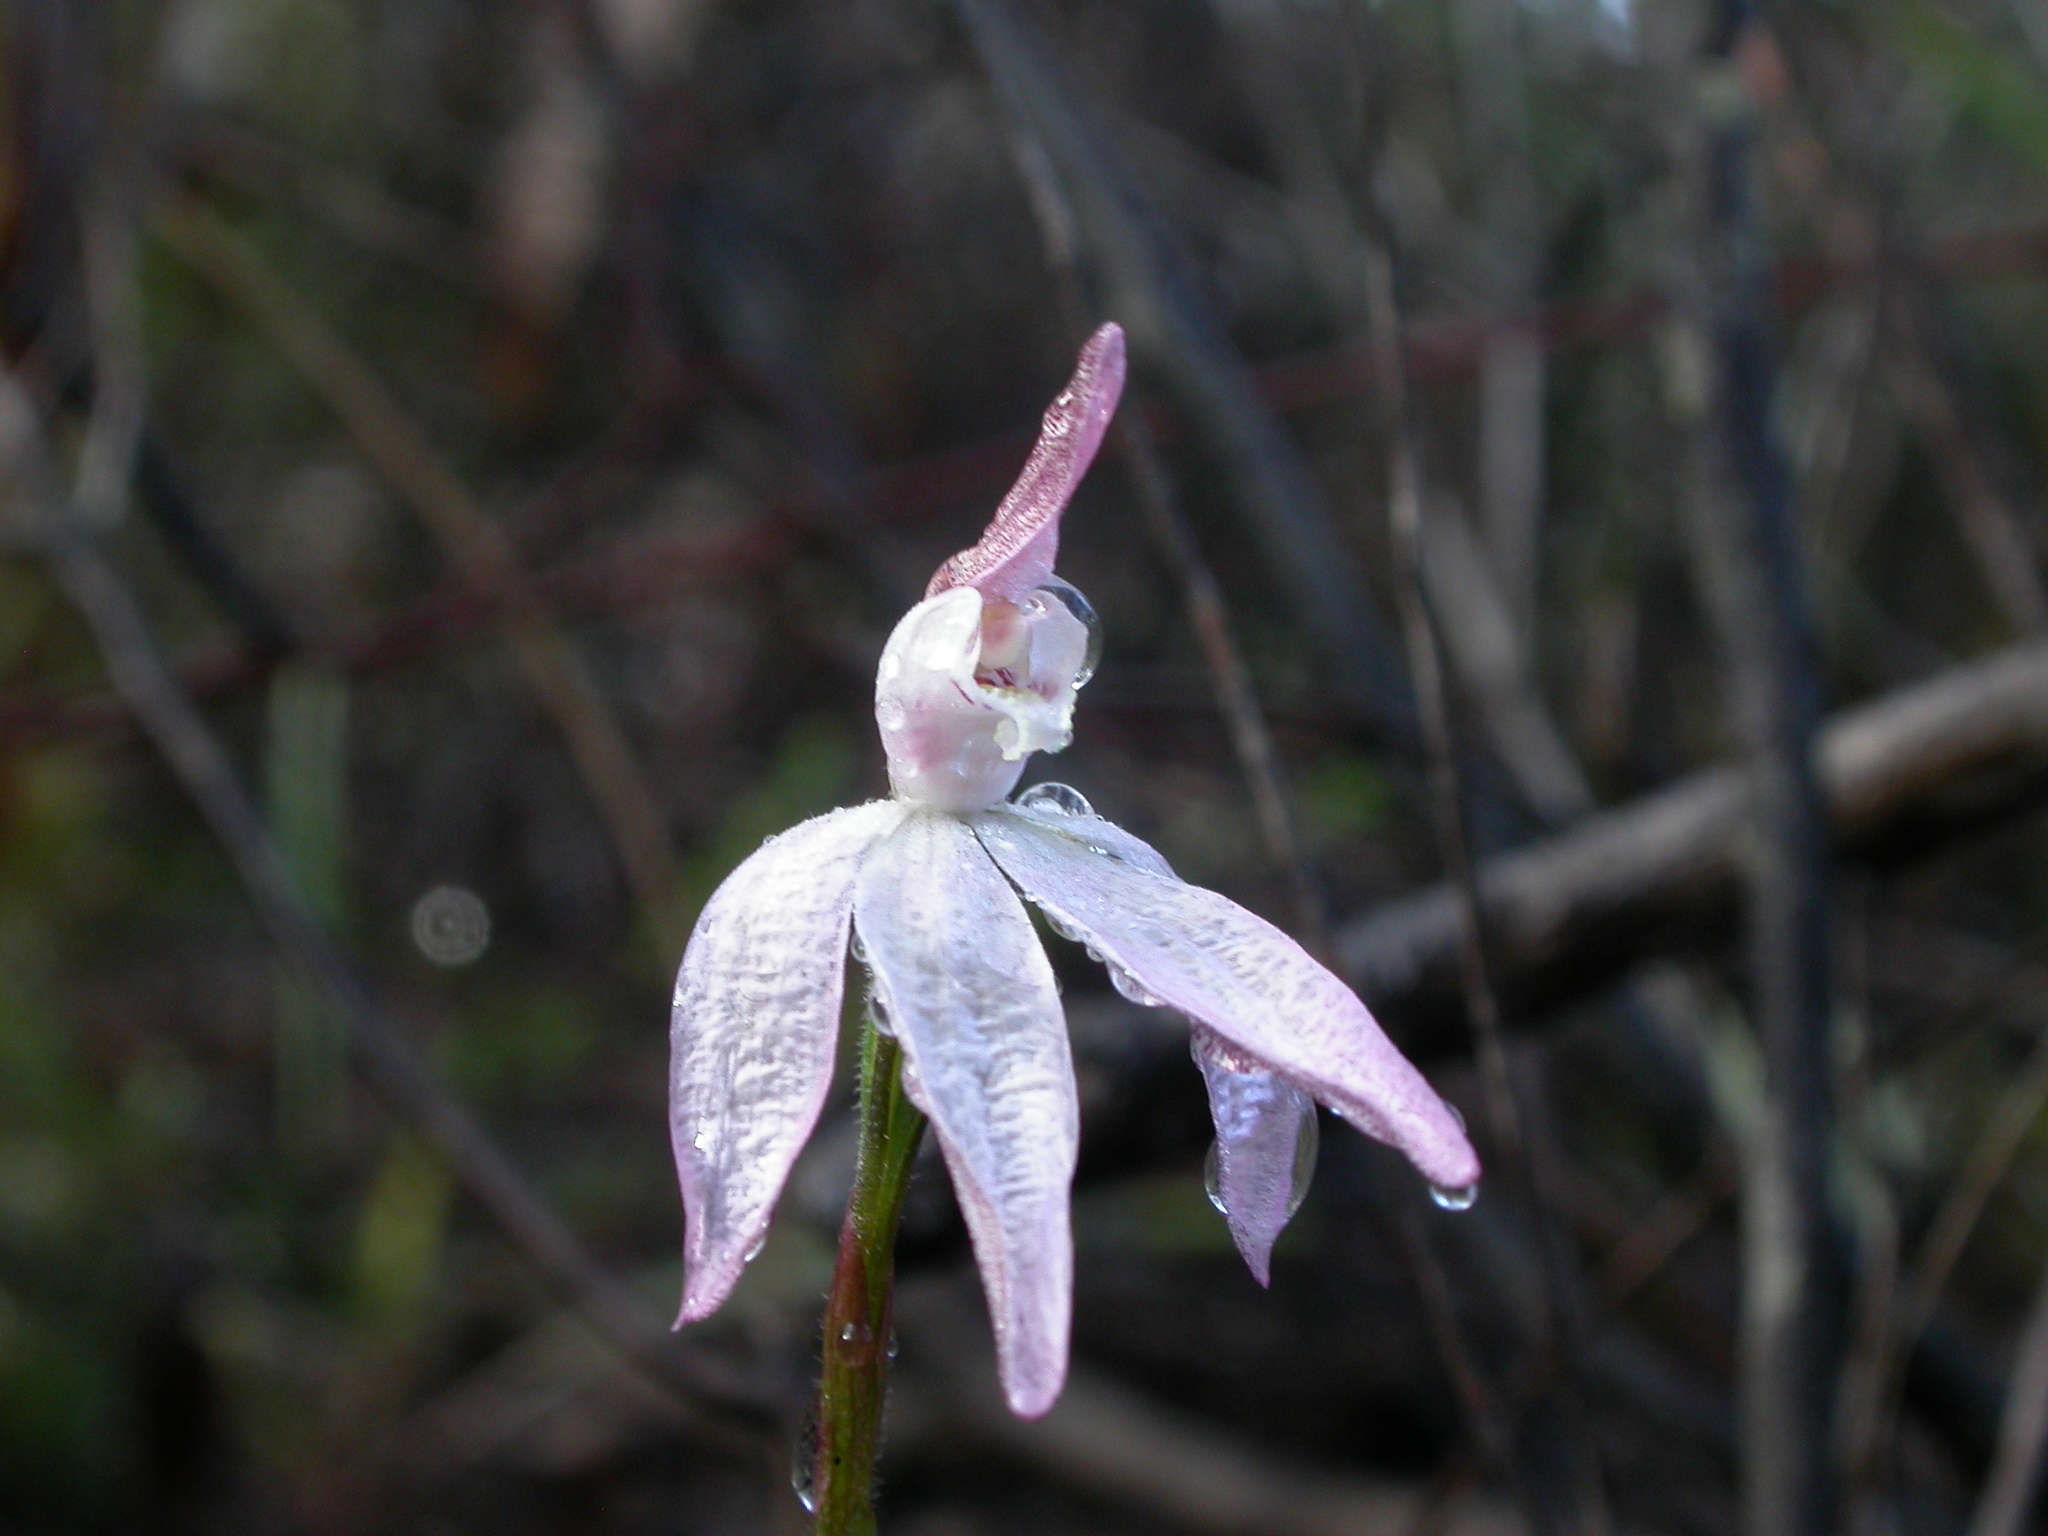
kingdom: Plantae
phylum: Tracheophyta
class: Liliopsida
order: Asparagales
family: Orchidaceae
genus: Caladenia
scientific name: Caladenia fuscata
